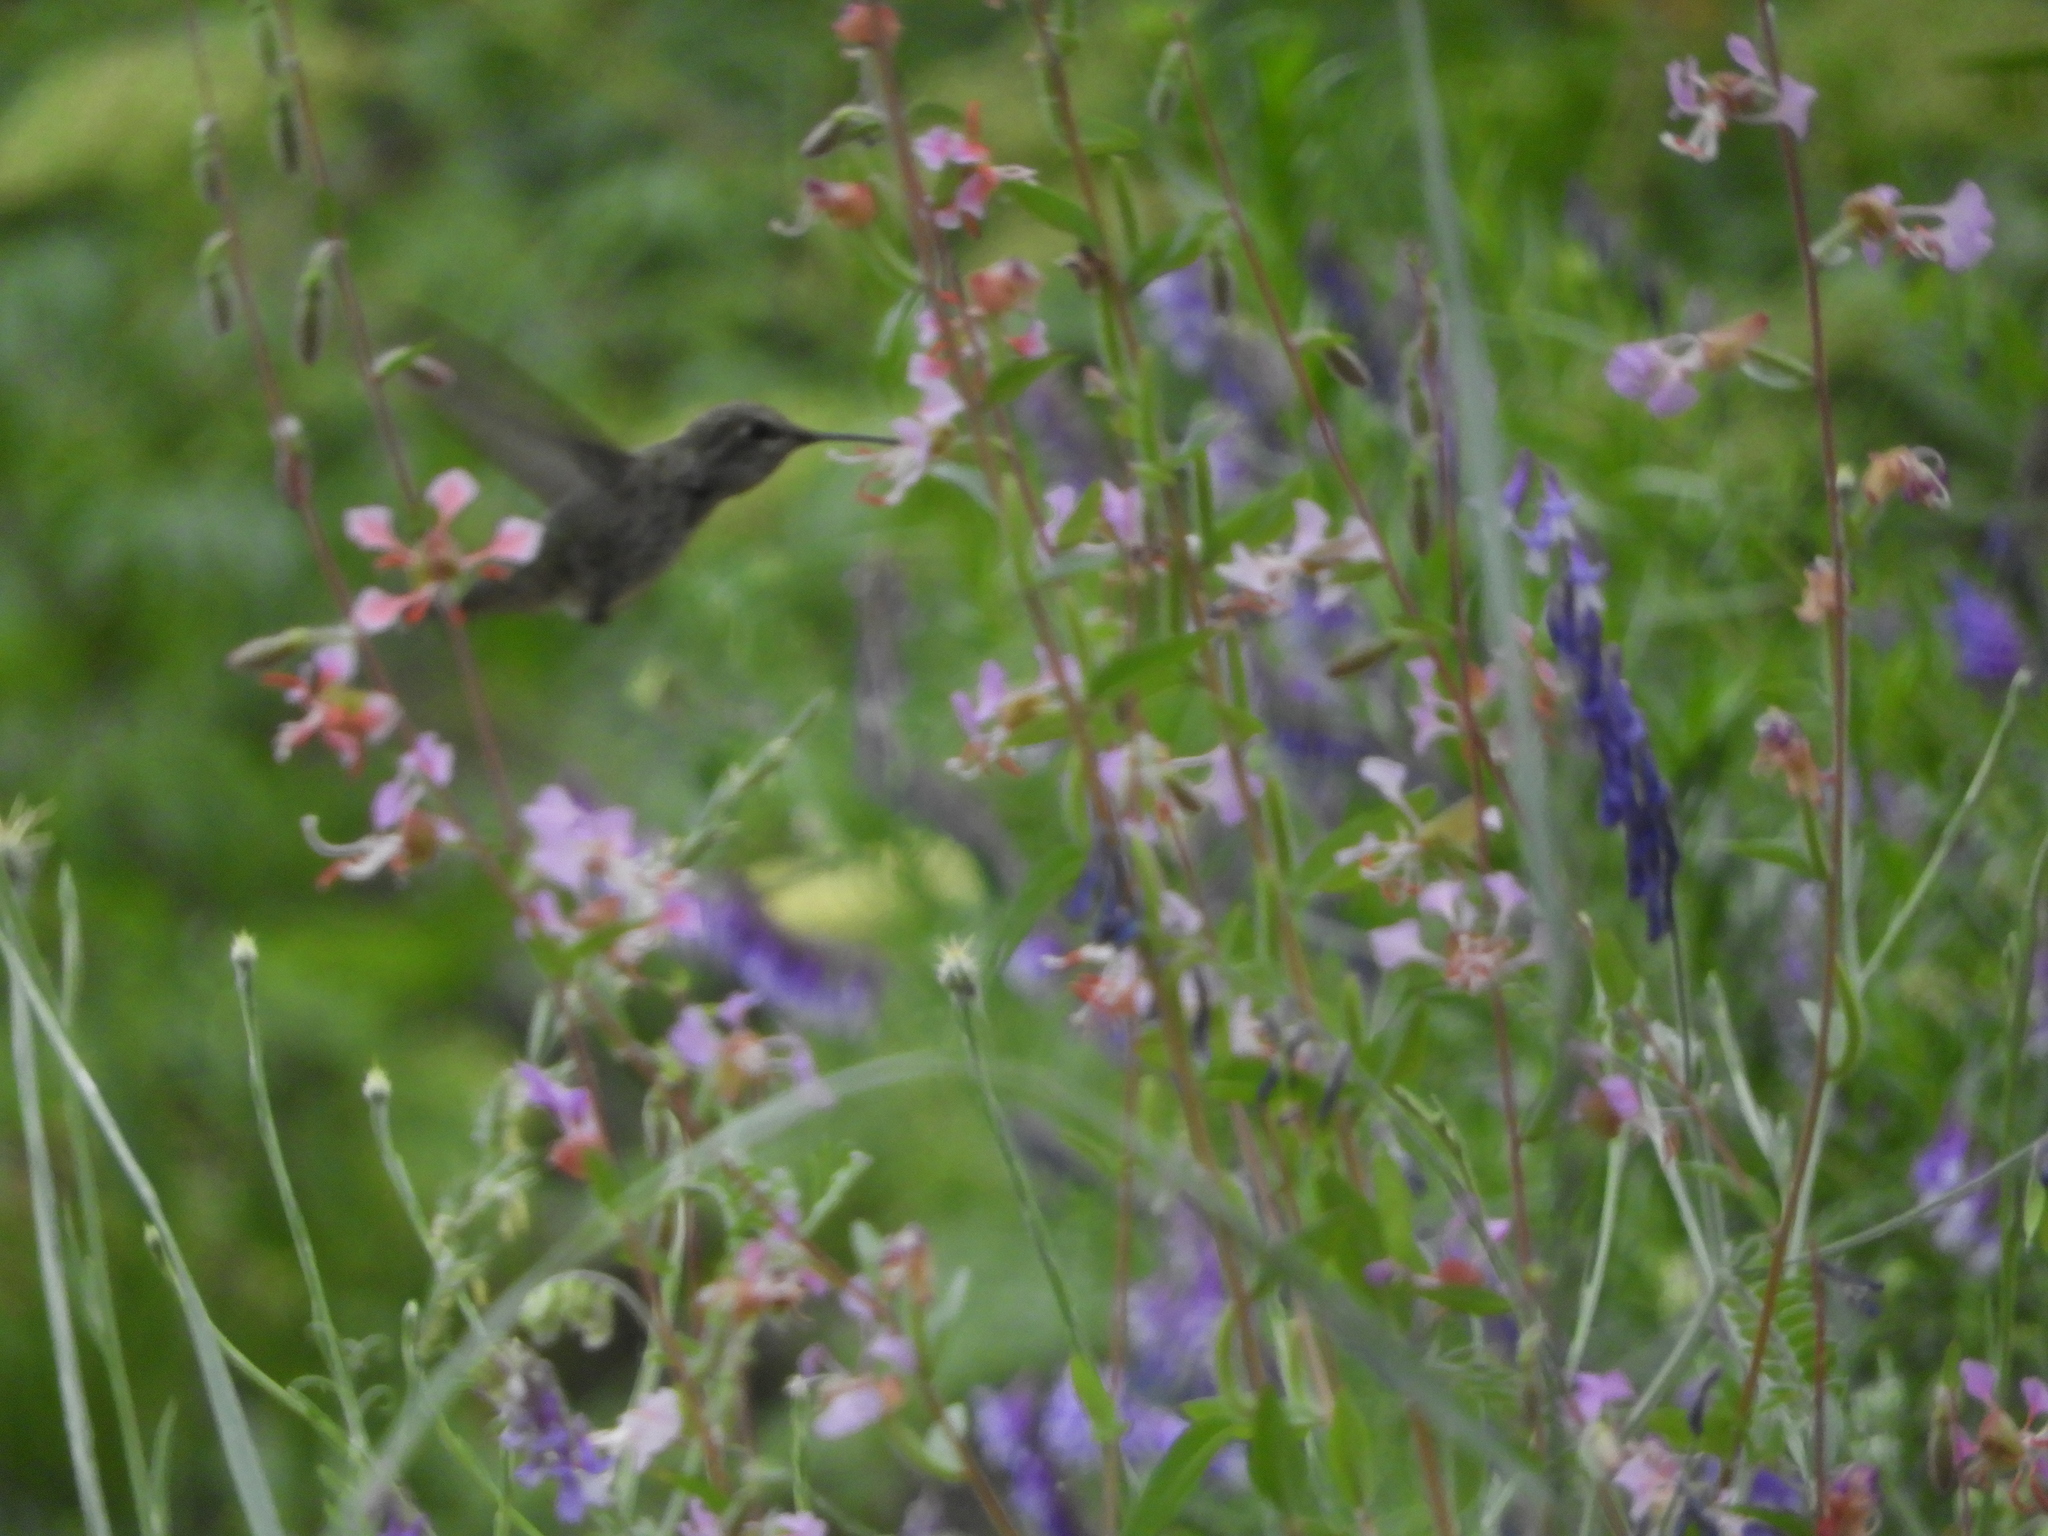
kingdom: Animalia
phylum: Chordata
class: Aves
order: Apodiformes
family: Trochilidae
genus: Calypte
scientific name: Calypte anna
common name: Anna's hummingbird
